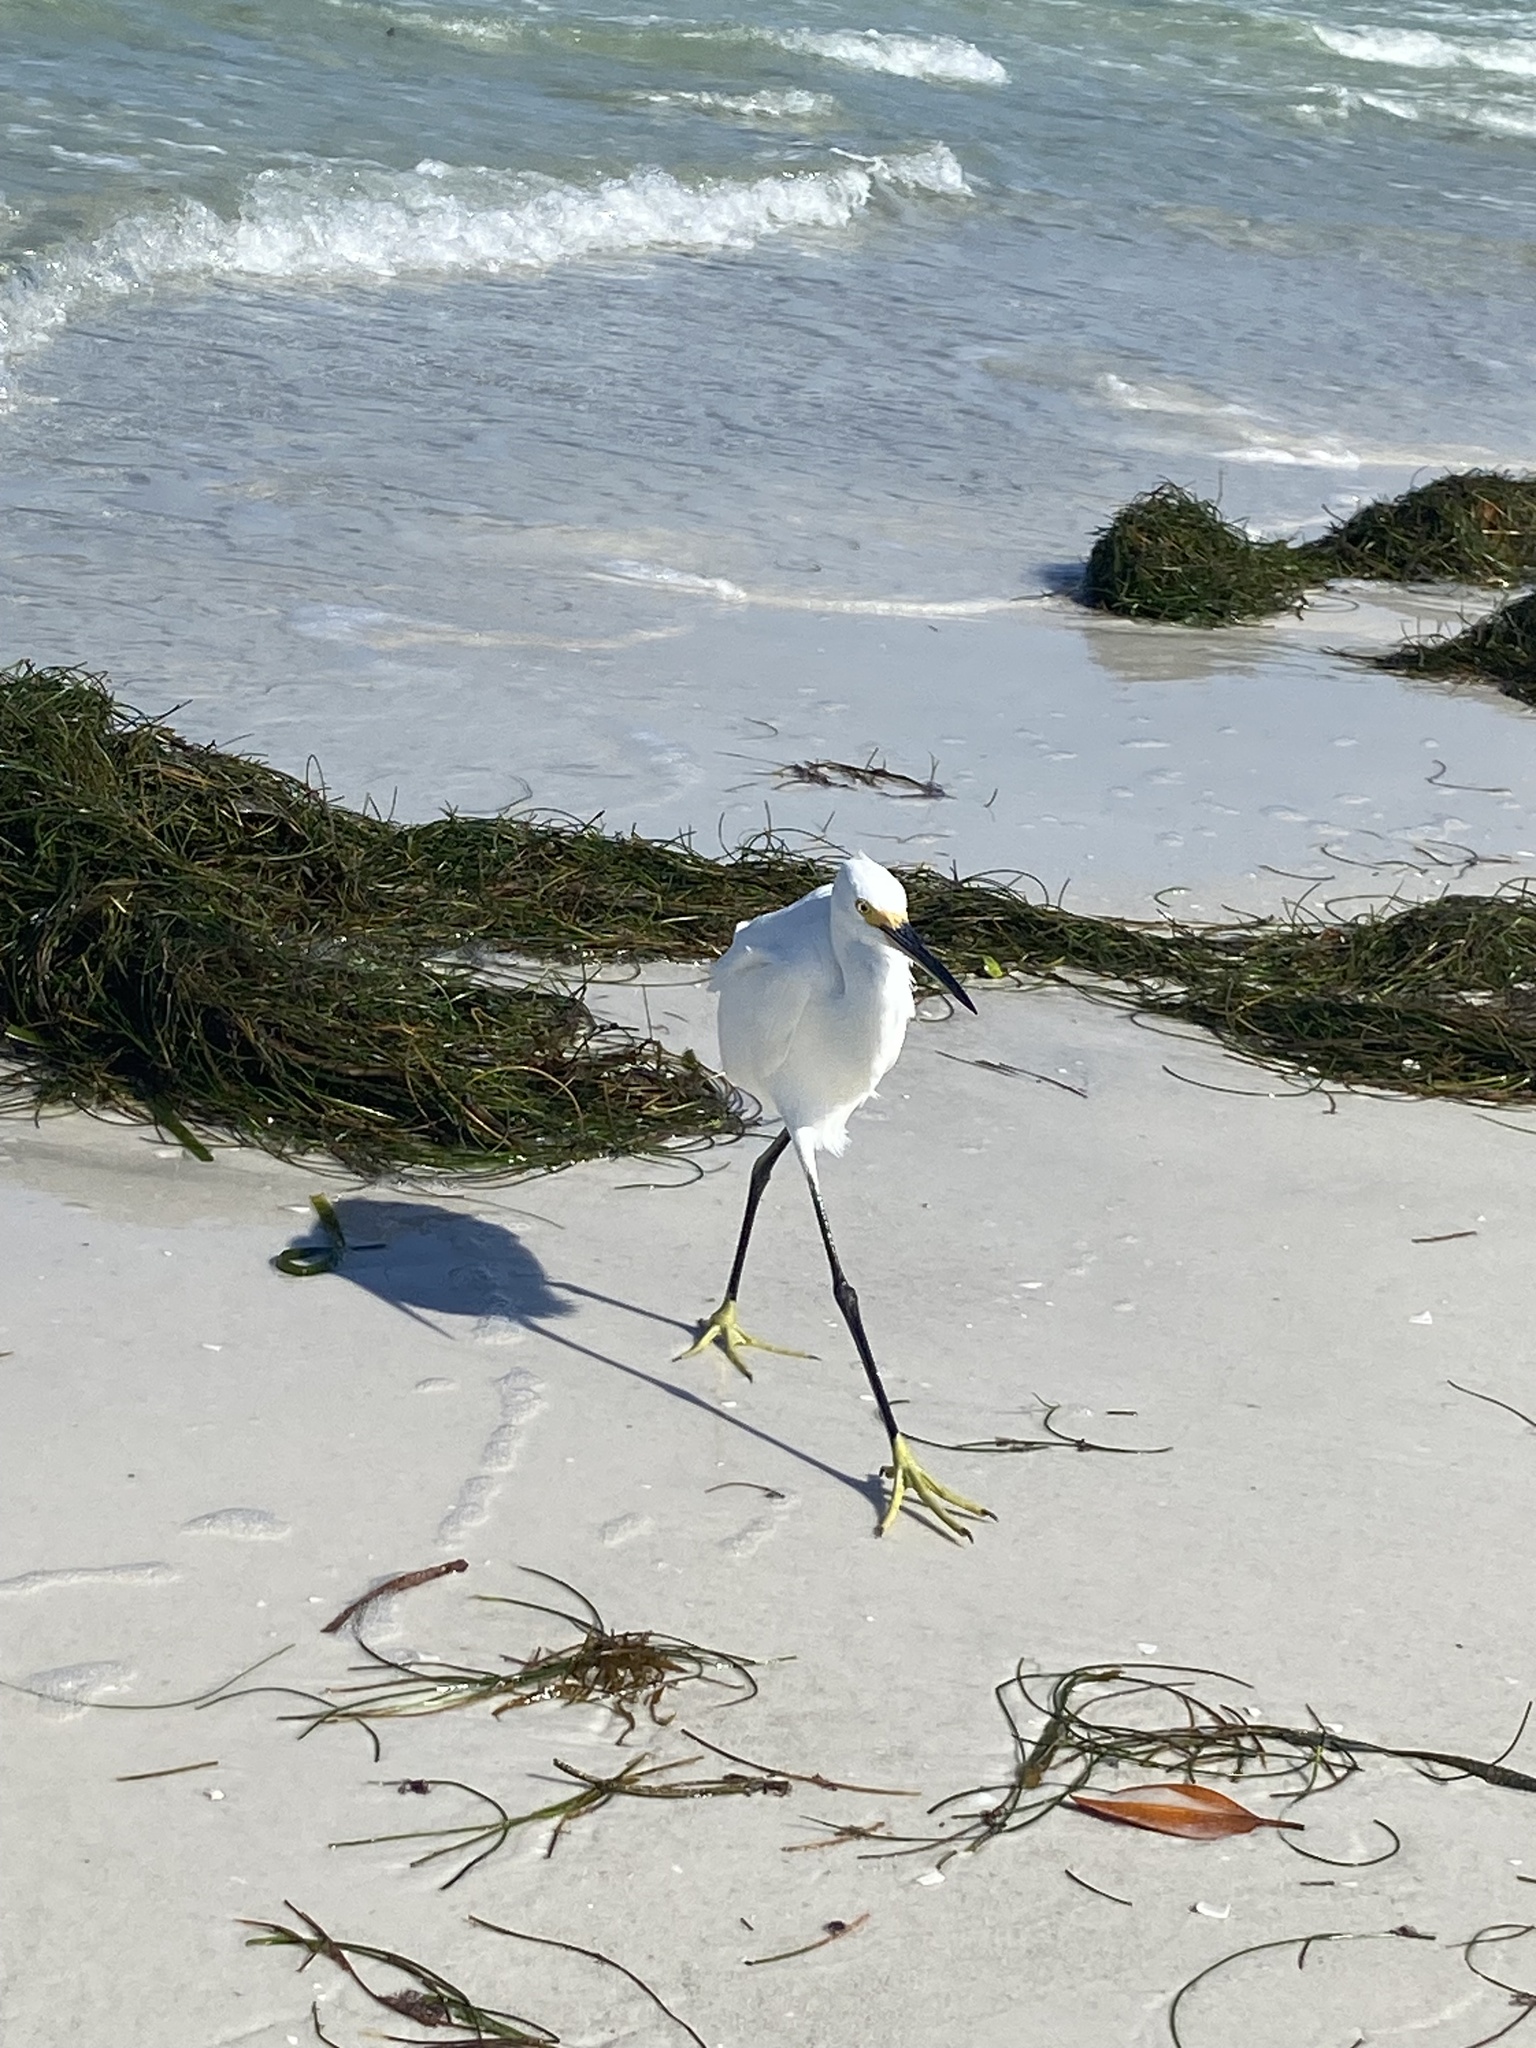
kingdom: Animalia
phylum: Chordata
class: Aves
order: Pelecaniformes
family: Ardeidae
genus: Egretta
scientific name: Egretta thula
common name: Snowy egret
